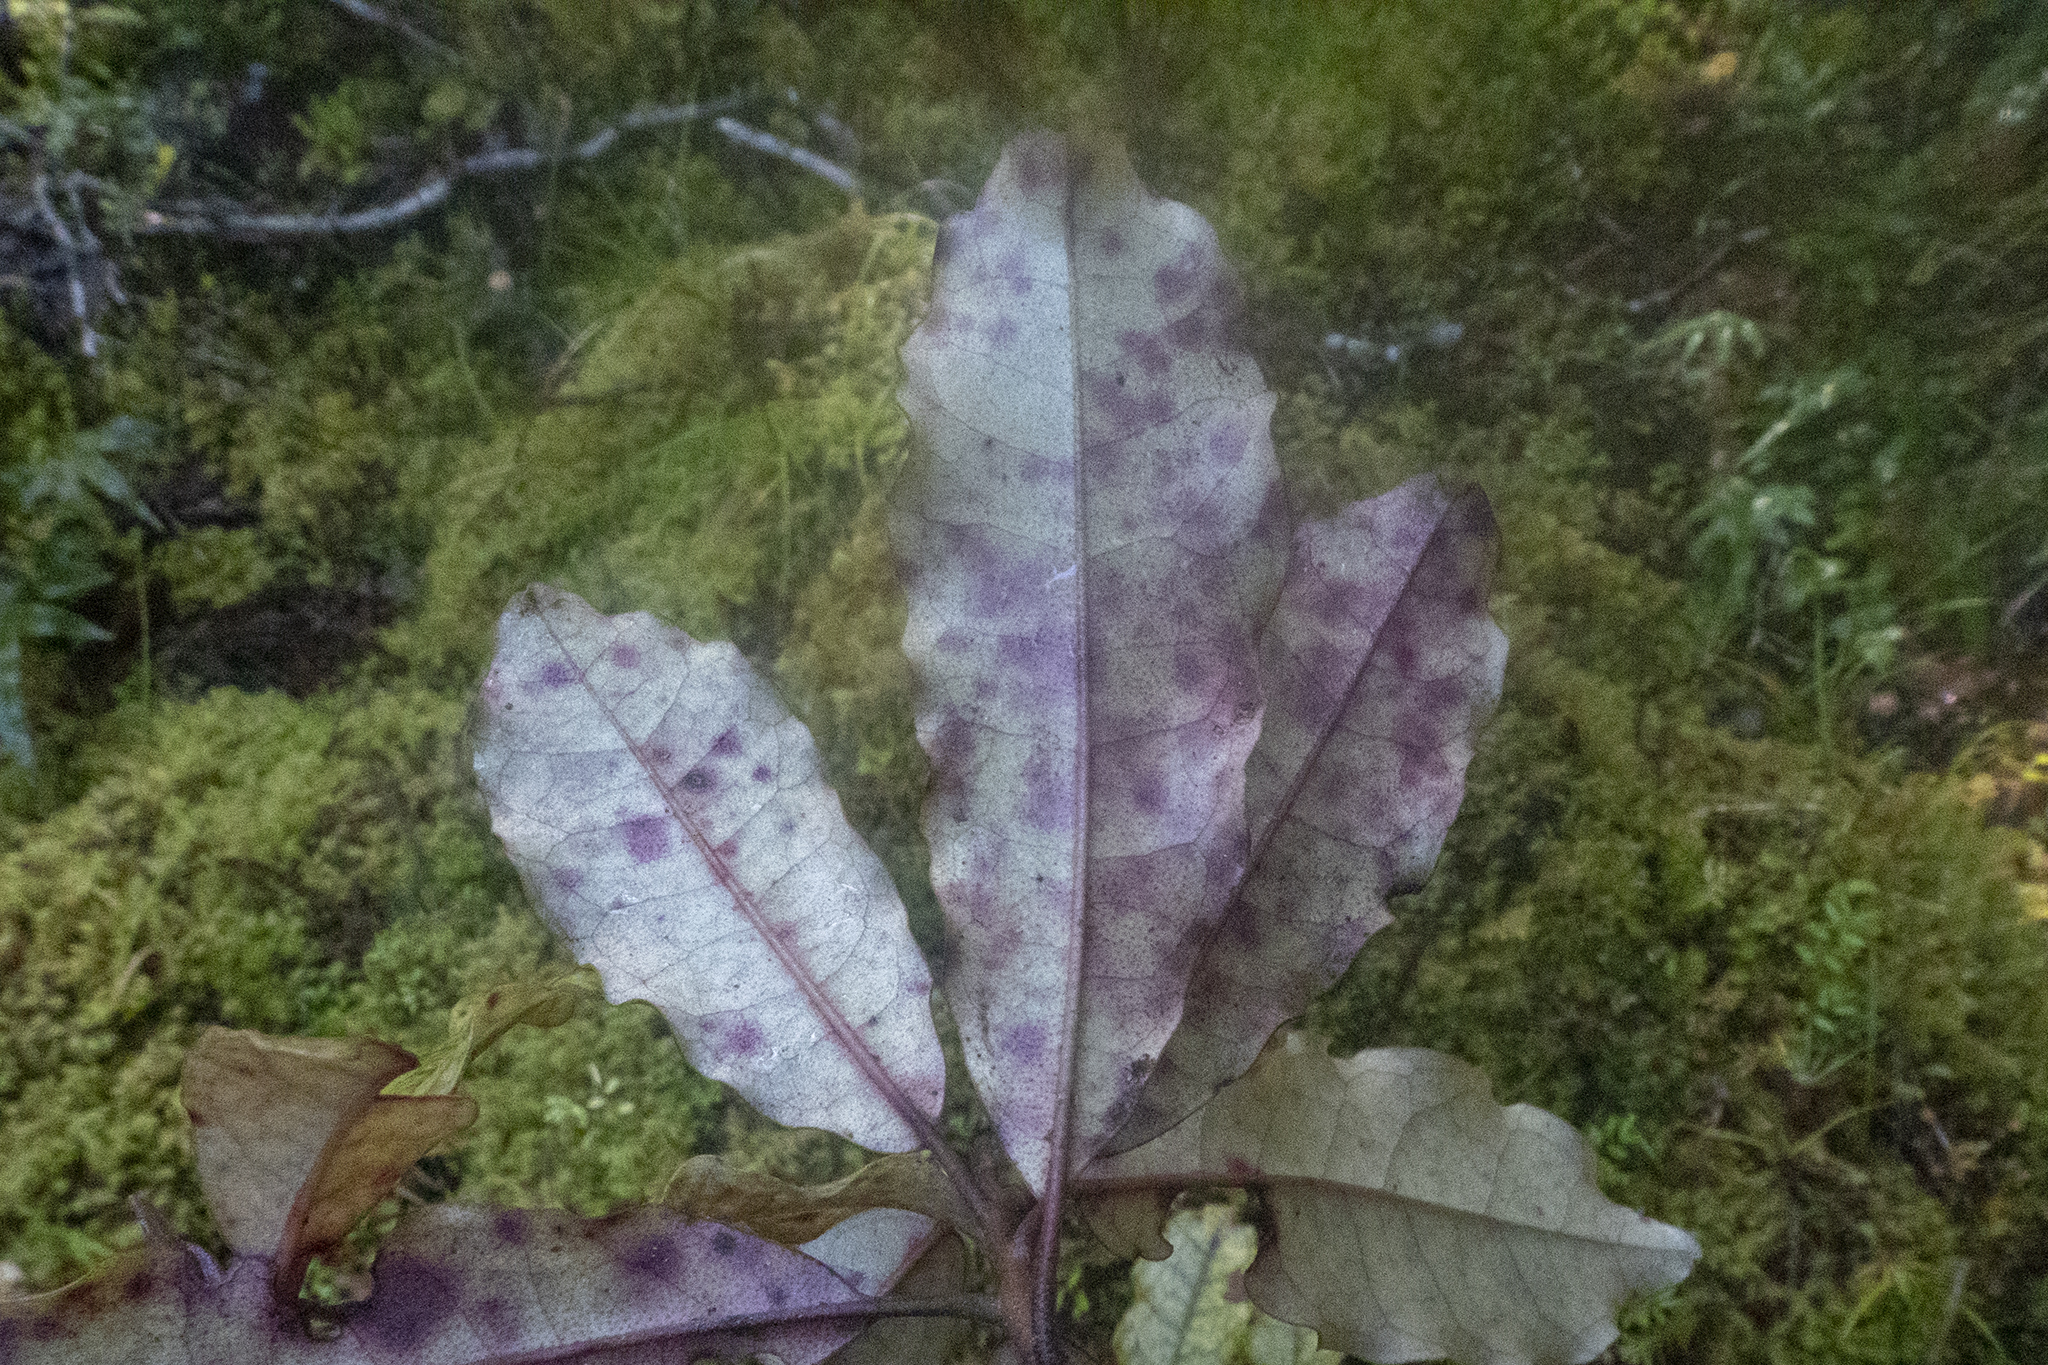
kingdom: Plantae
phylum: Tracheophyta
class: Magnoliopsida
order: Paracryphiales
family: Paracryphiaceae
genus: Quintinia
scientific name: Quintinia serrata
